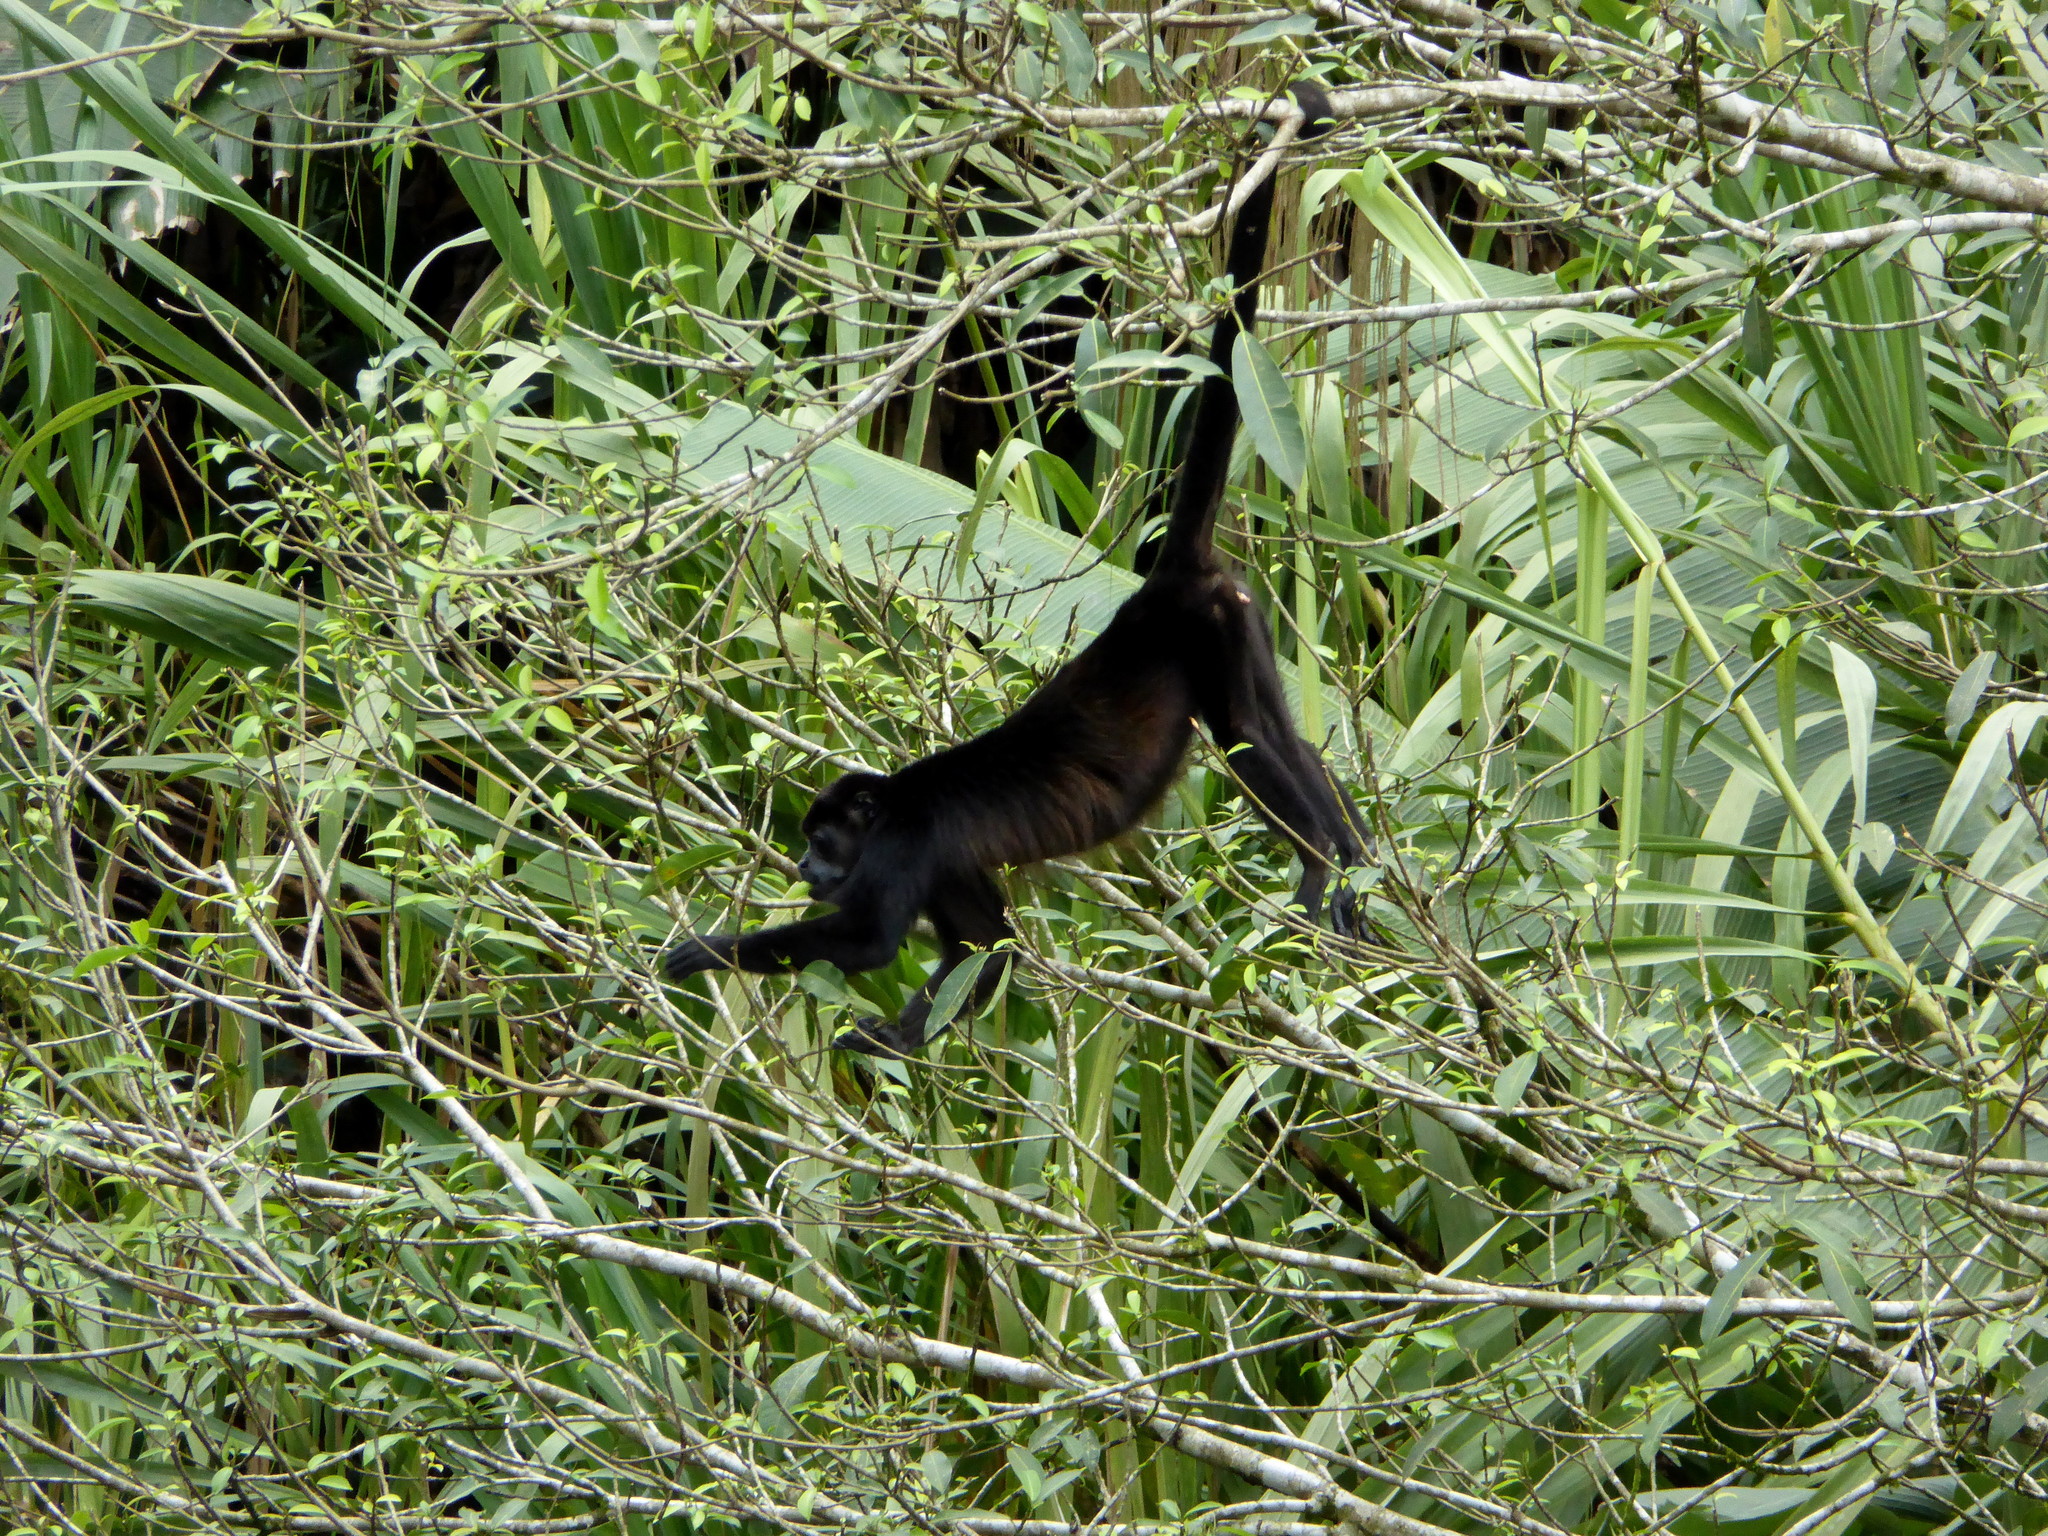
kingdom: Animalia
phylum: Chordata
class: Mammalia
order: Primates
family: Atelidae
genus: Alouatta
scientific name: Alouatta palliata
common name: Mantled howler
